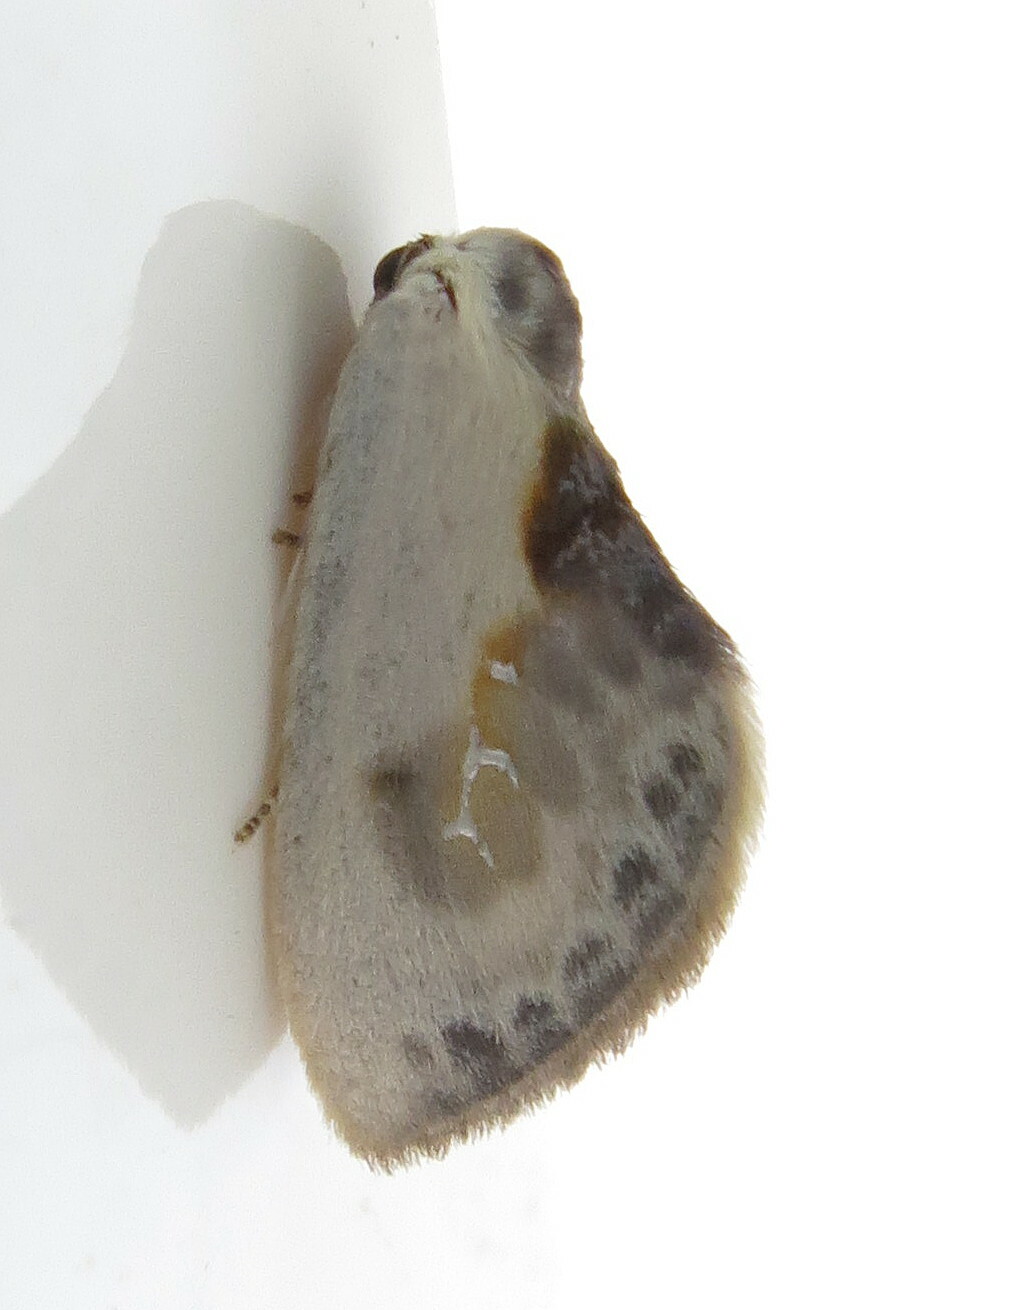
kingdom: Animalia
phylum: Arthropoda
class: Insecta
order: Lepidoptera
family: Drepanidae
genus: Cilix
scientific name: Cilix glaucata
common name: Chinese character
